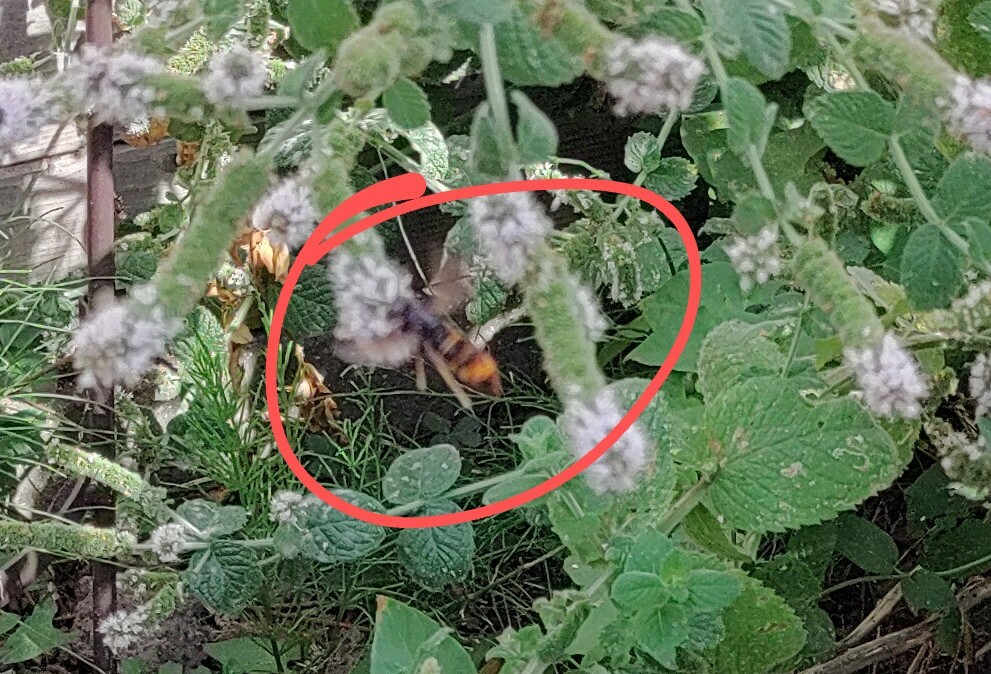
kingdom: Animalia
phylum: Arthropoda
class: Insecta
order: Hymenoptera
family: Vespidae
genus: Vespa
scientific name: Vespa velutina
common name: Asian hornet
